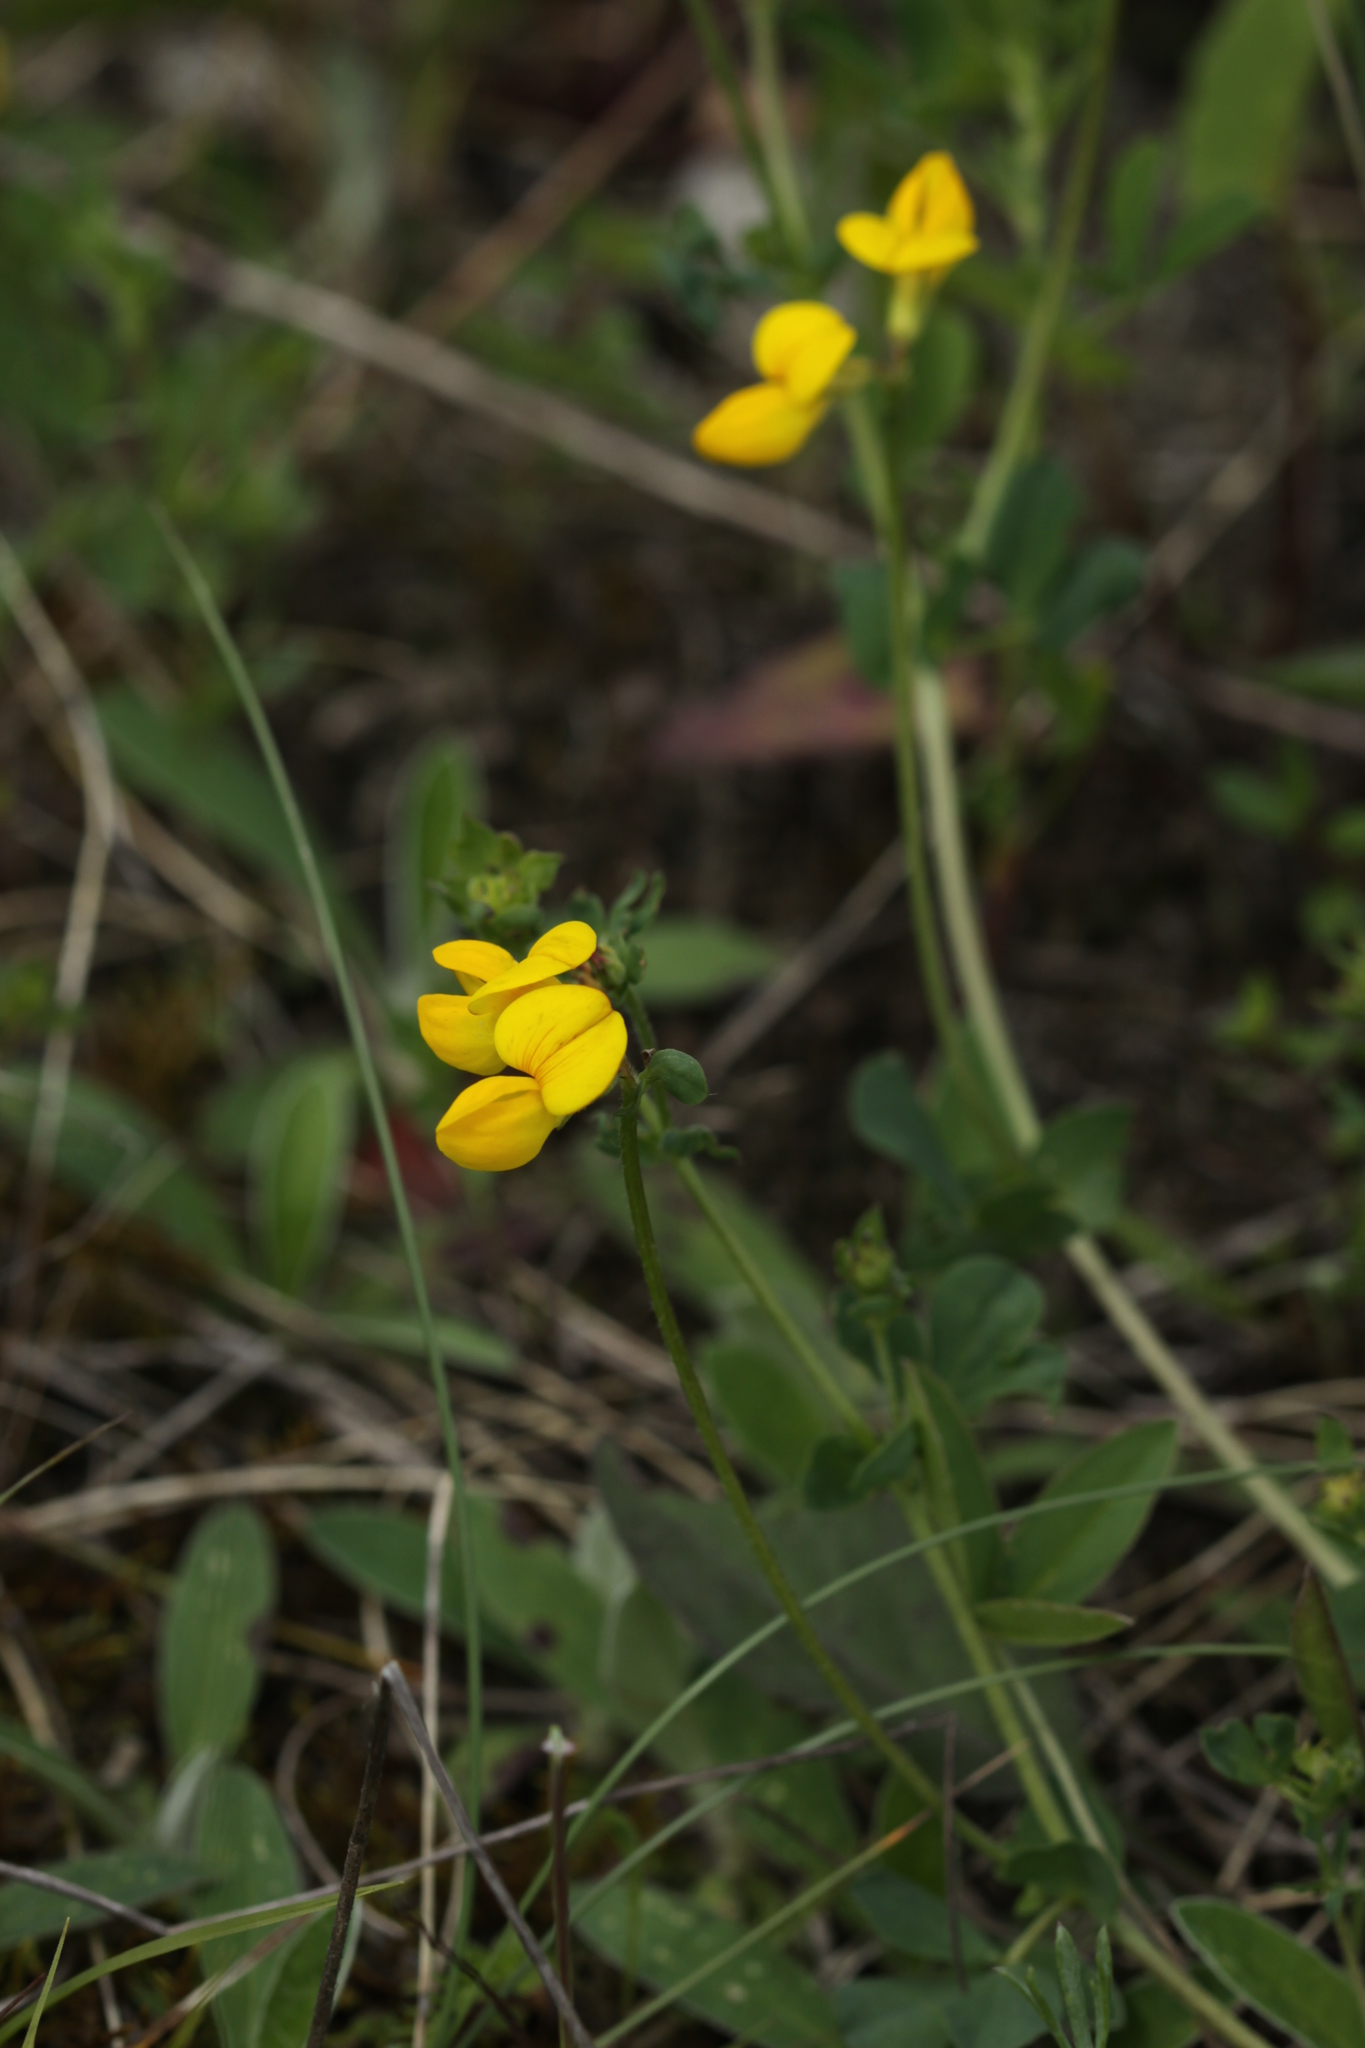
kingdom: Plantae
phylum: Tracheophyta
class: Magnoliopsida
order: Fabales
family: Fabaceae
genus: Lotus
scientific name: Lotus corniculatus
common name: Common bird's-foot-trefoil
